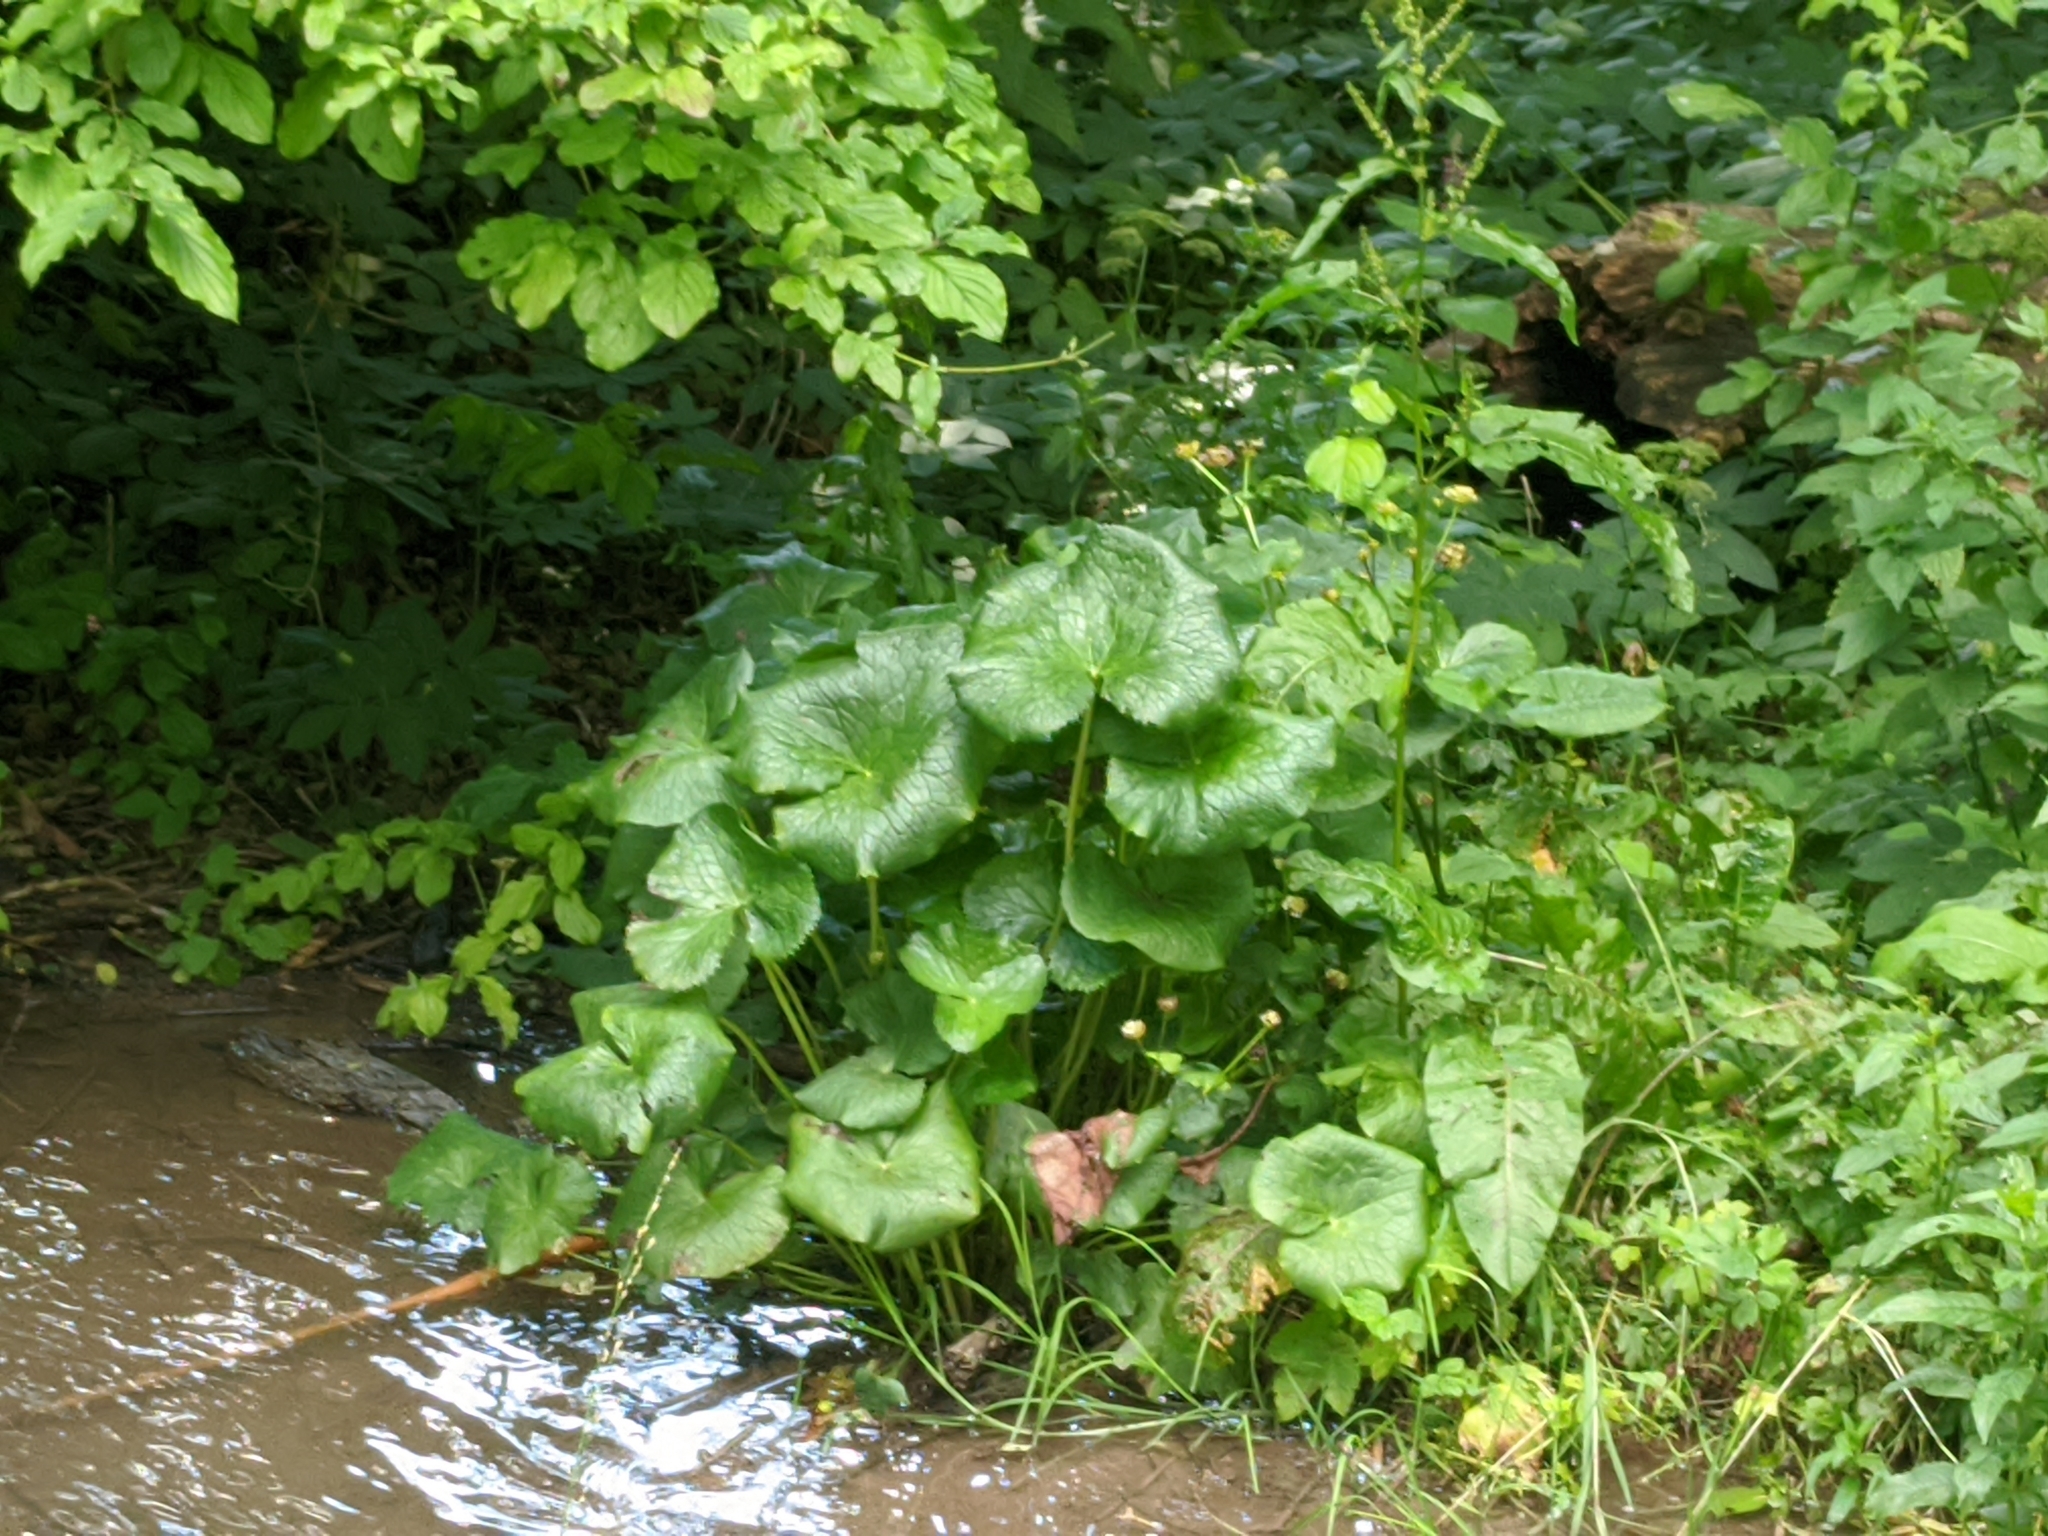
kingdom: Plantae
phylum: Tracheophyta
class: Magnoliopsida
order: Ranunculales
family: Ranunculaceae
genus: Caltha
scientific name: Caltha palustris
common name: Marsh marigold
